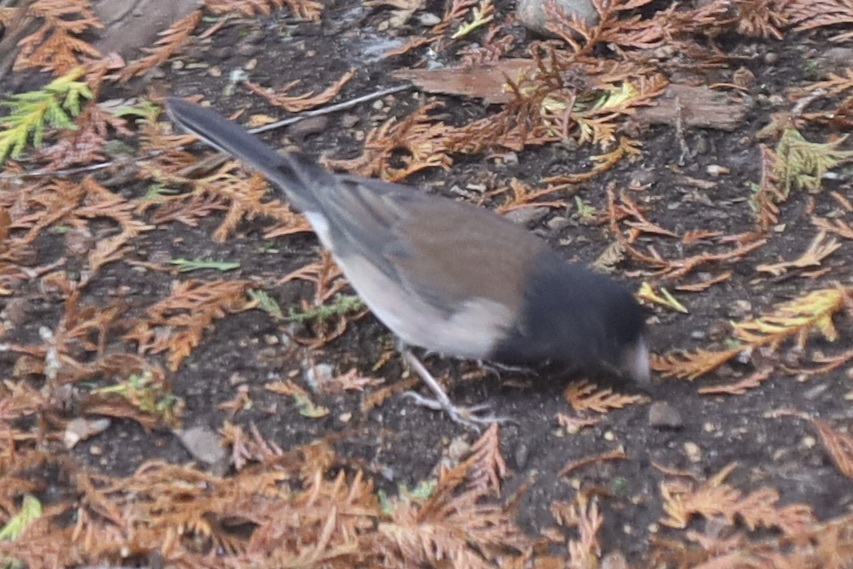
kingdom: Animalia
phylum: Chordata
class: Aves
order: Passeriformes
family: Passerellidae
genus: Junco
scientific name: Junco hyemalis
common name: Dark-eyed junco
